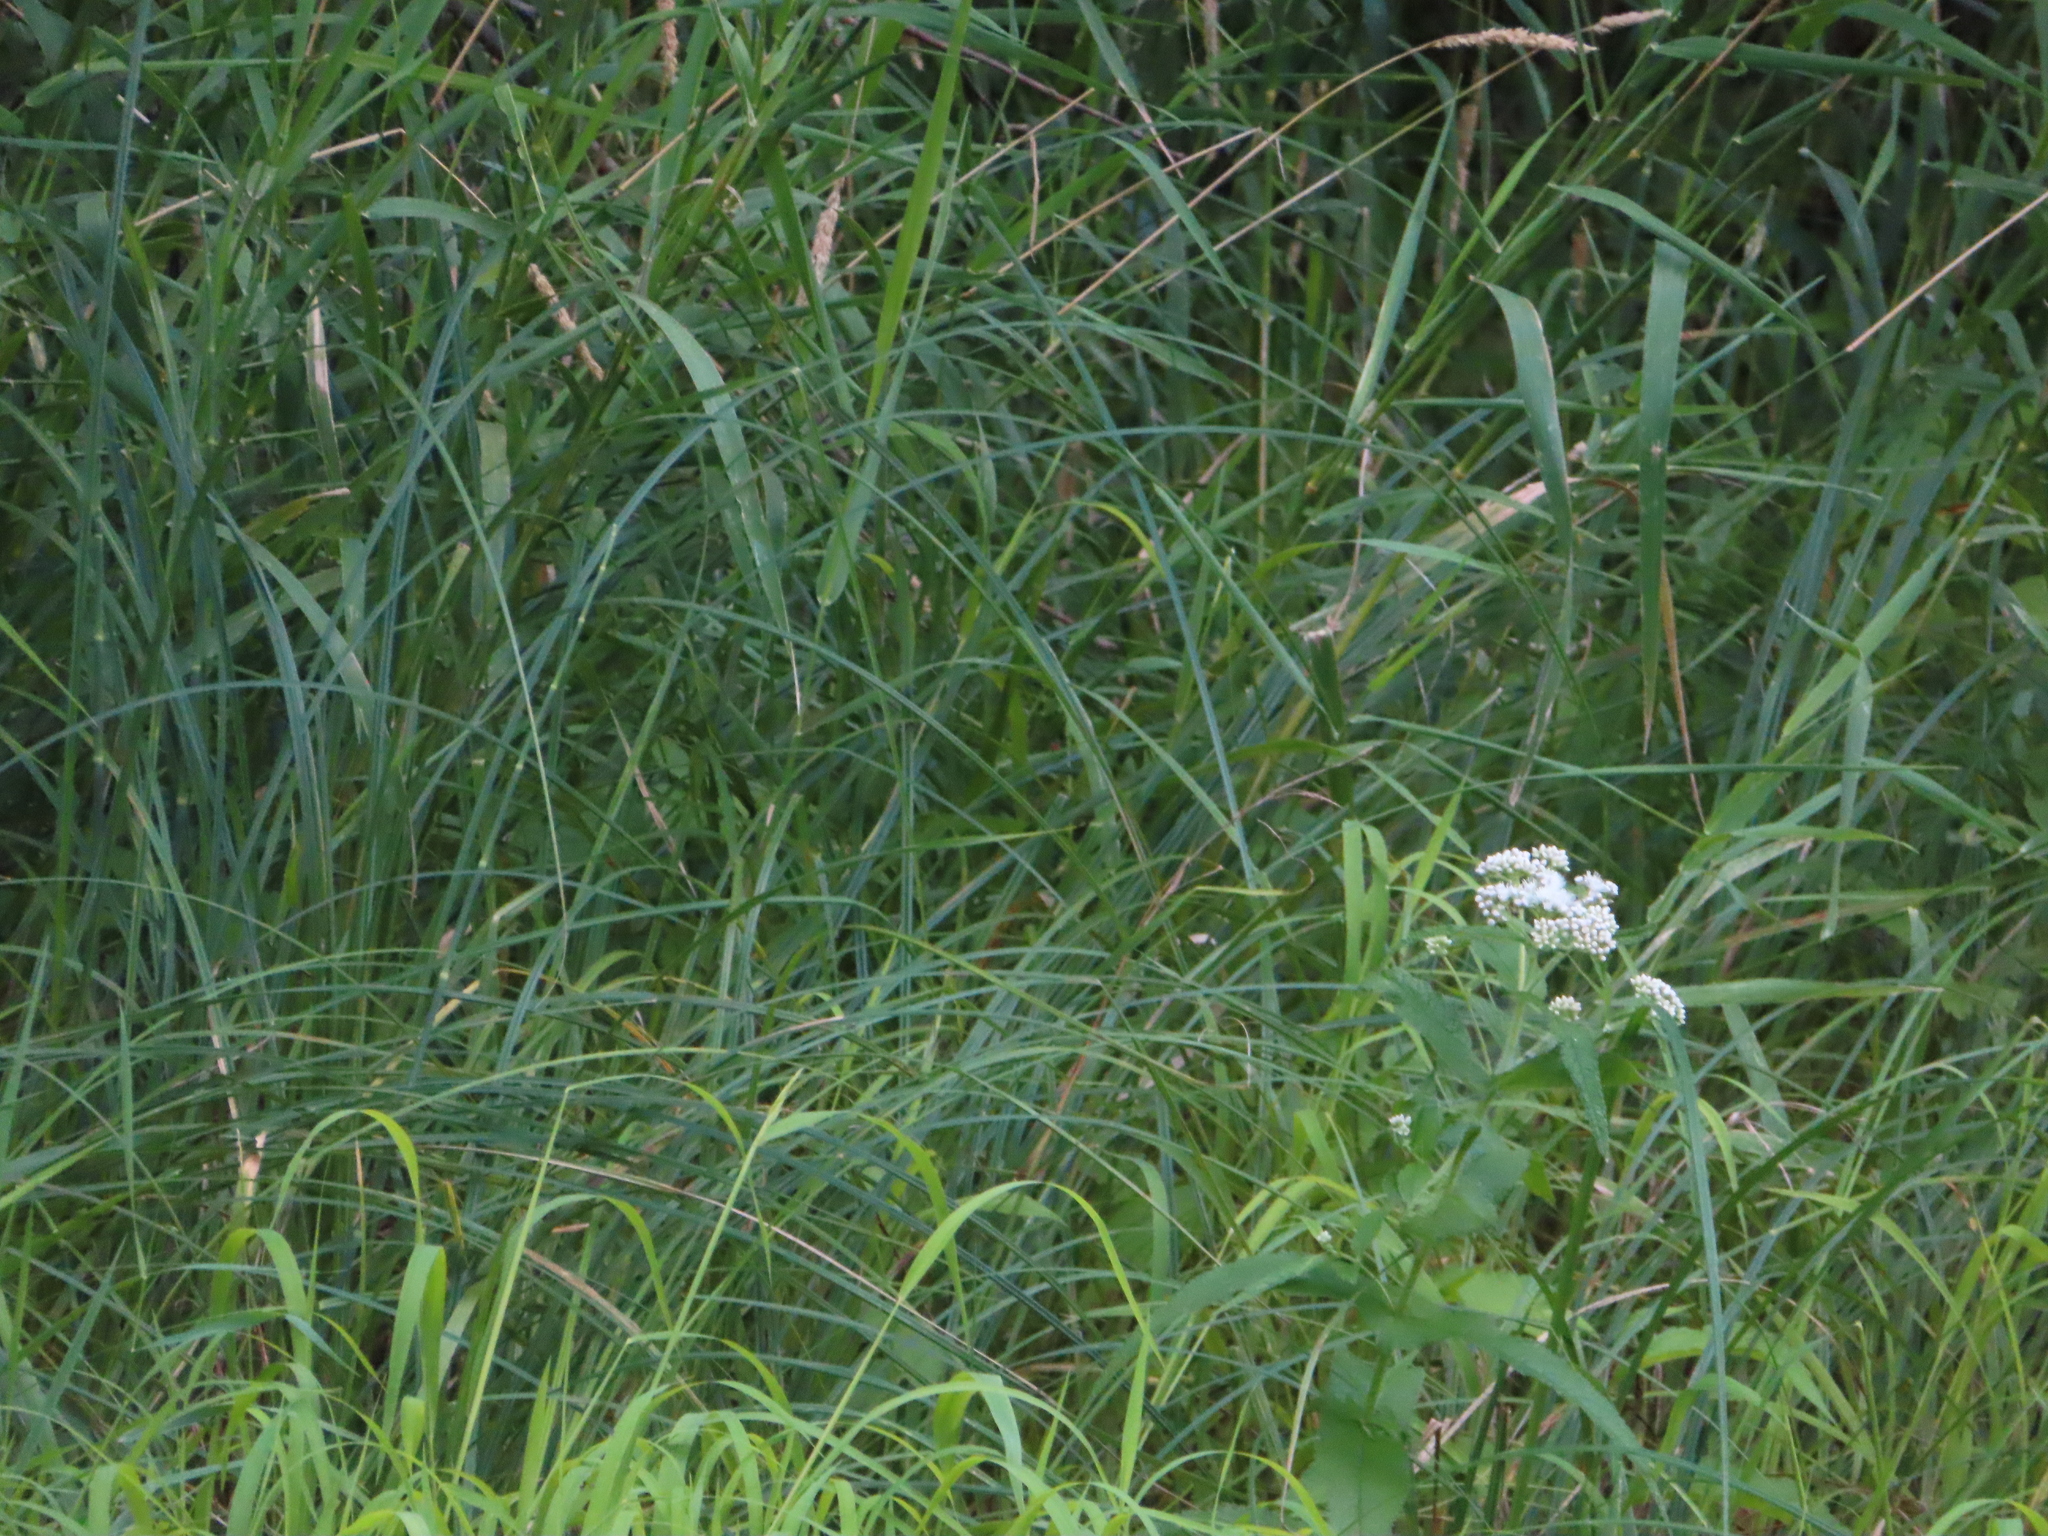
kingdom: Plantae
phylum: Tracheophyta
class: Magnoliopsida
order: Asterales
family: Asteraceae
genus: Eupatorium
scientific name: Eupatorium perfoliatum
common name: Boneset
